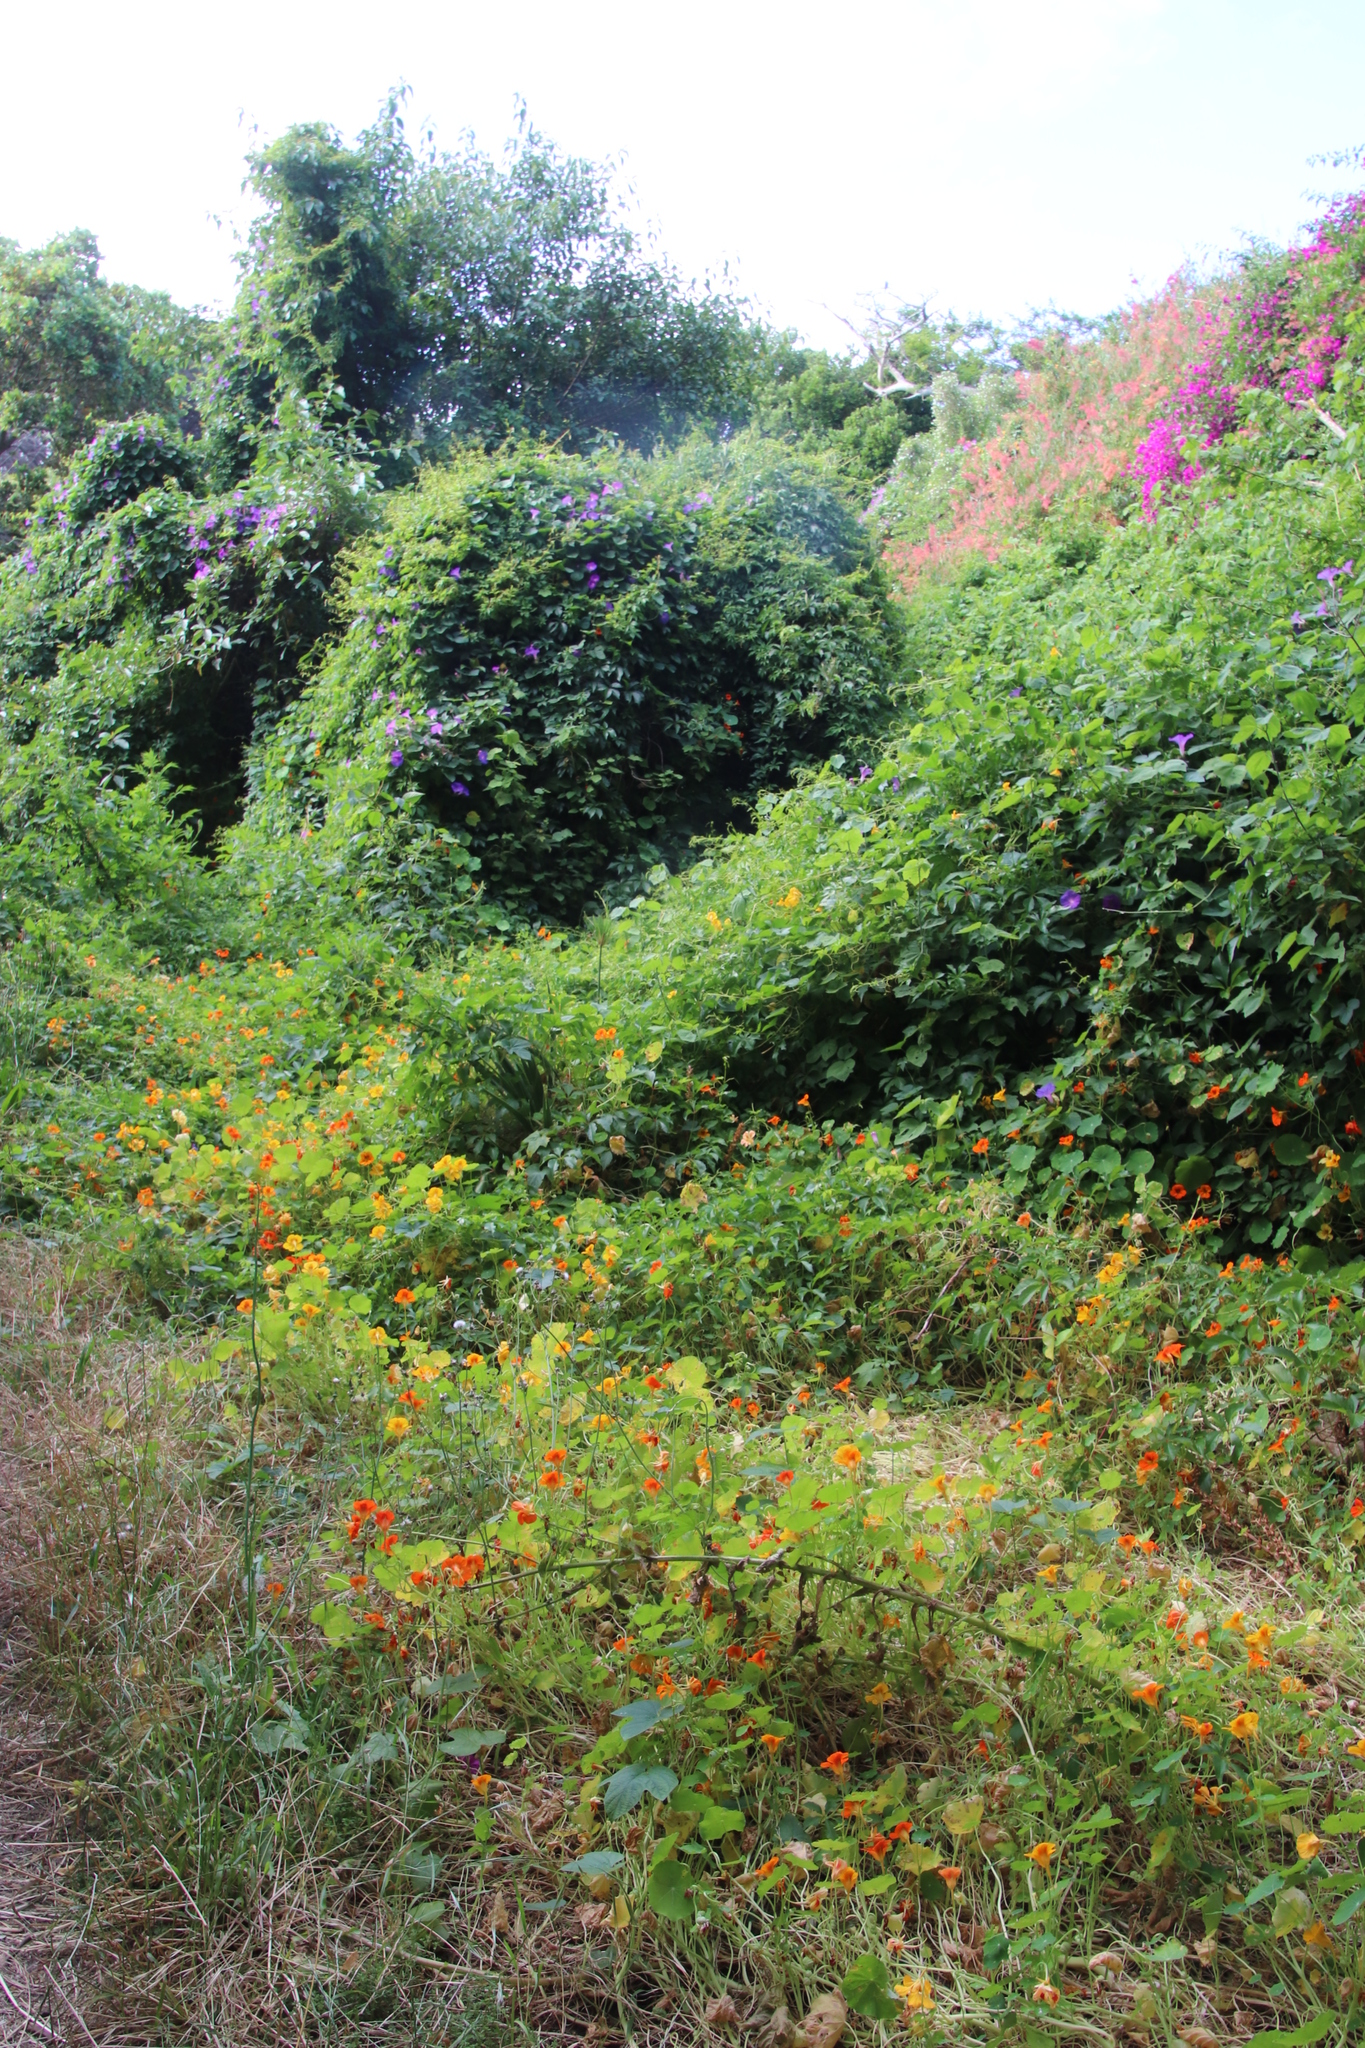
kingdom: Plantae
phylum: Tracheophyta
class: Magnoliopsida
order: Brassicales
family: Tropaeolaceae
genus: Tropaeolum
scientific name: Tropaeolum majus
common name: Nasturtium
